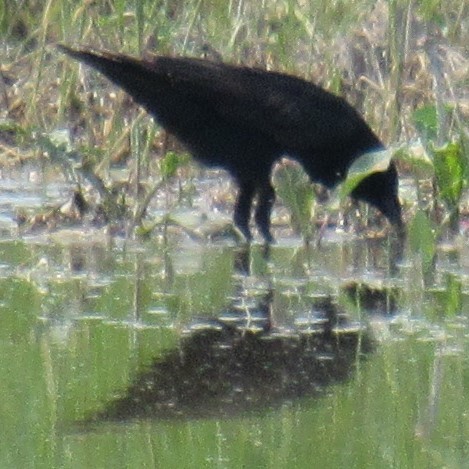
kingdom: Animalia
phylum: Chordata
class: Aves
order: Passeriformes
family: Corvidae
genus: Corvus
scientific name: Corvus brachyrhynchos
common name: American crow
